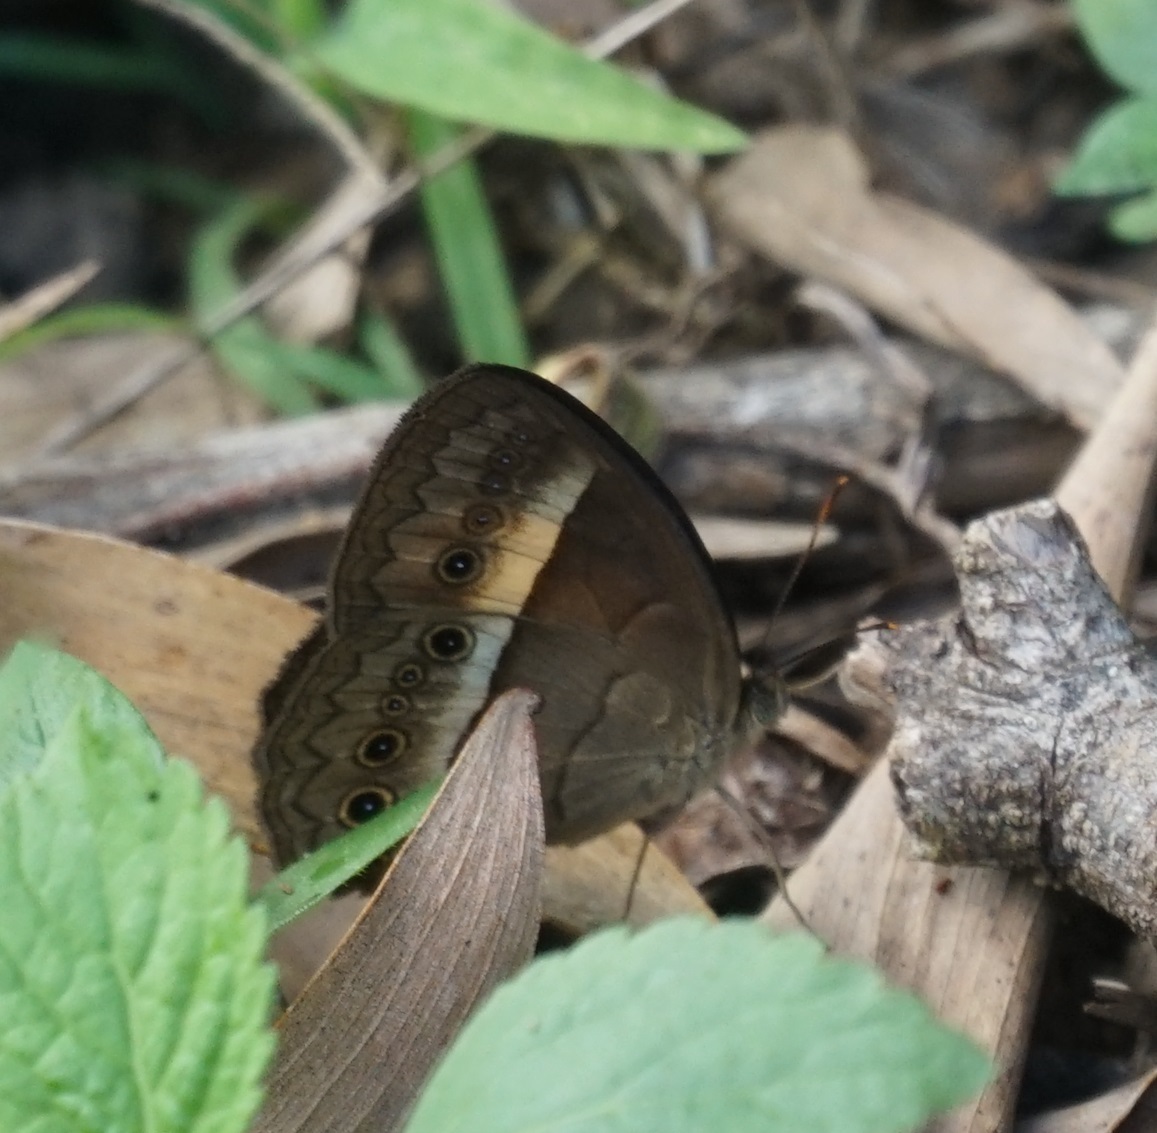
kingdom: Animalia
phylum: Arthropoda
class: Insecta
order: Lepidoptera
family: Nymphalidae
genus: Mycalesis
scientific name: Mycalesis terminus
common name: Orange bushbrown
